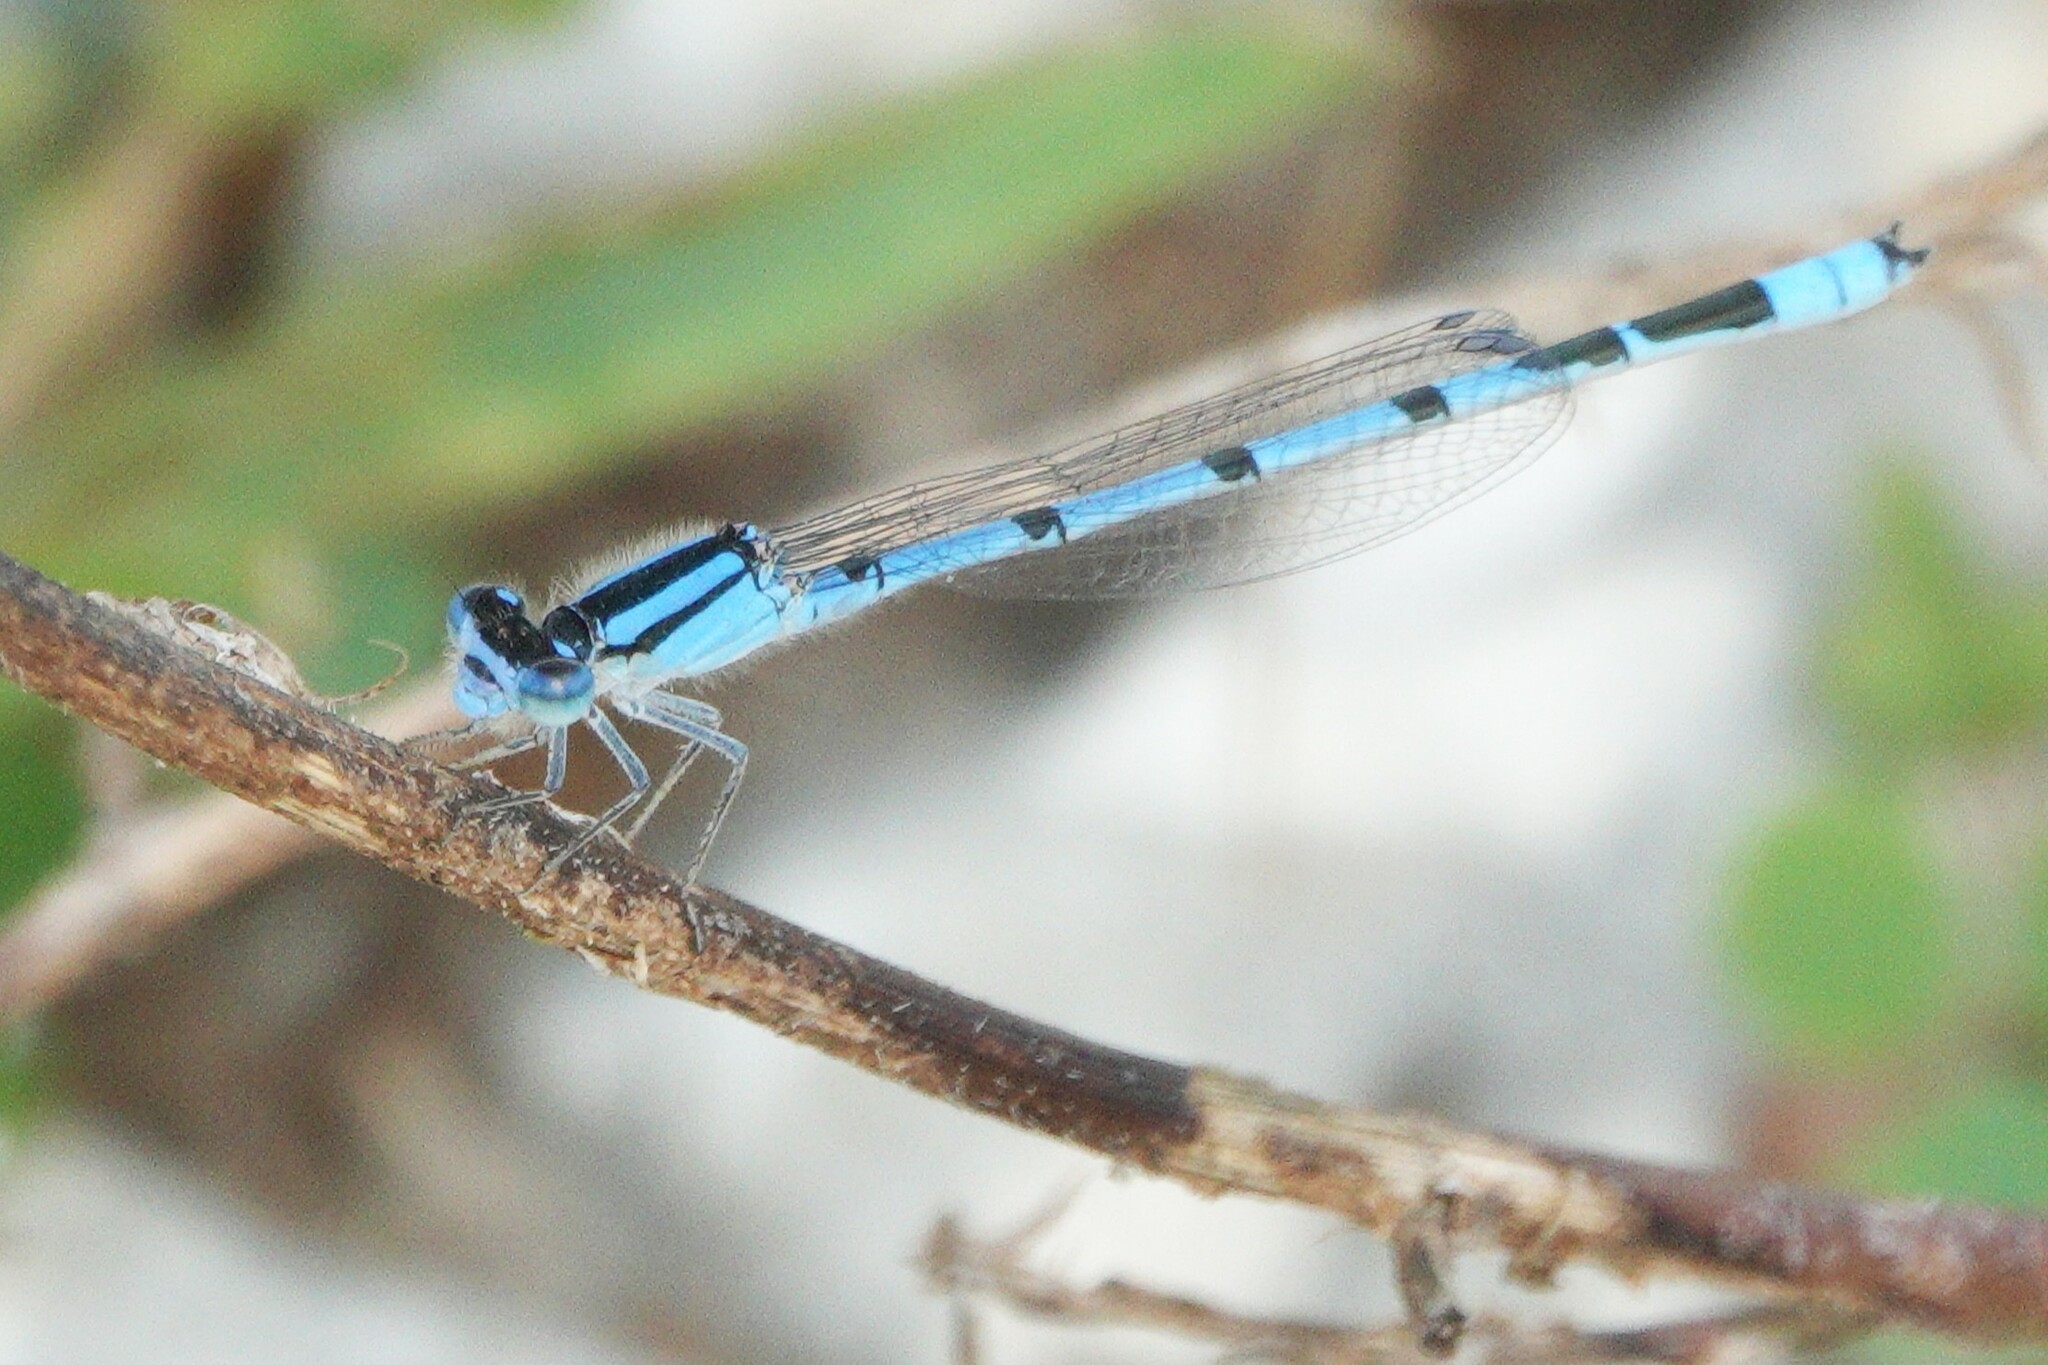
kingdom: Animalia
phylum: Arthropoda
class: Insecta
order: Odonata
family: Coenagrionidae
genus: Enallagma
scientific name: Enallagma civile
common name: Damselfly
